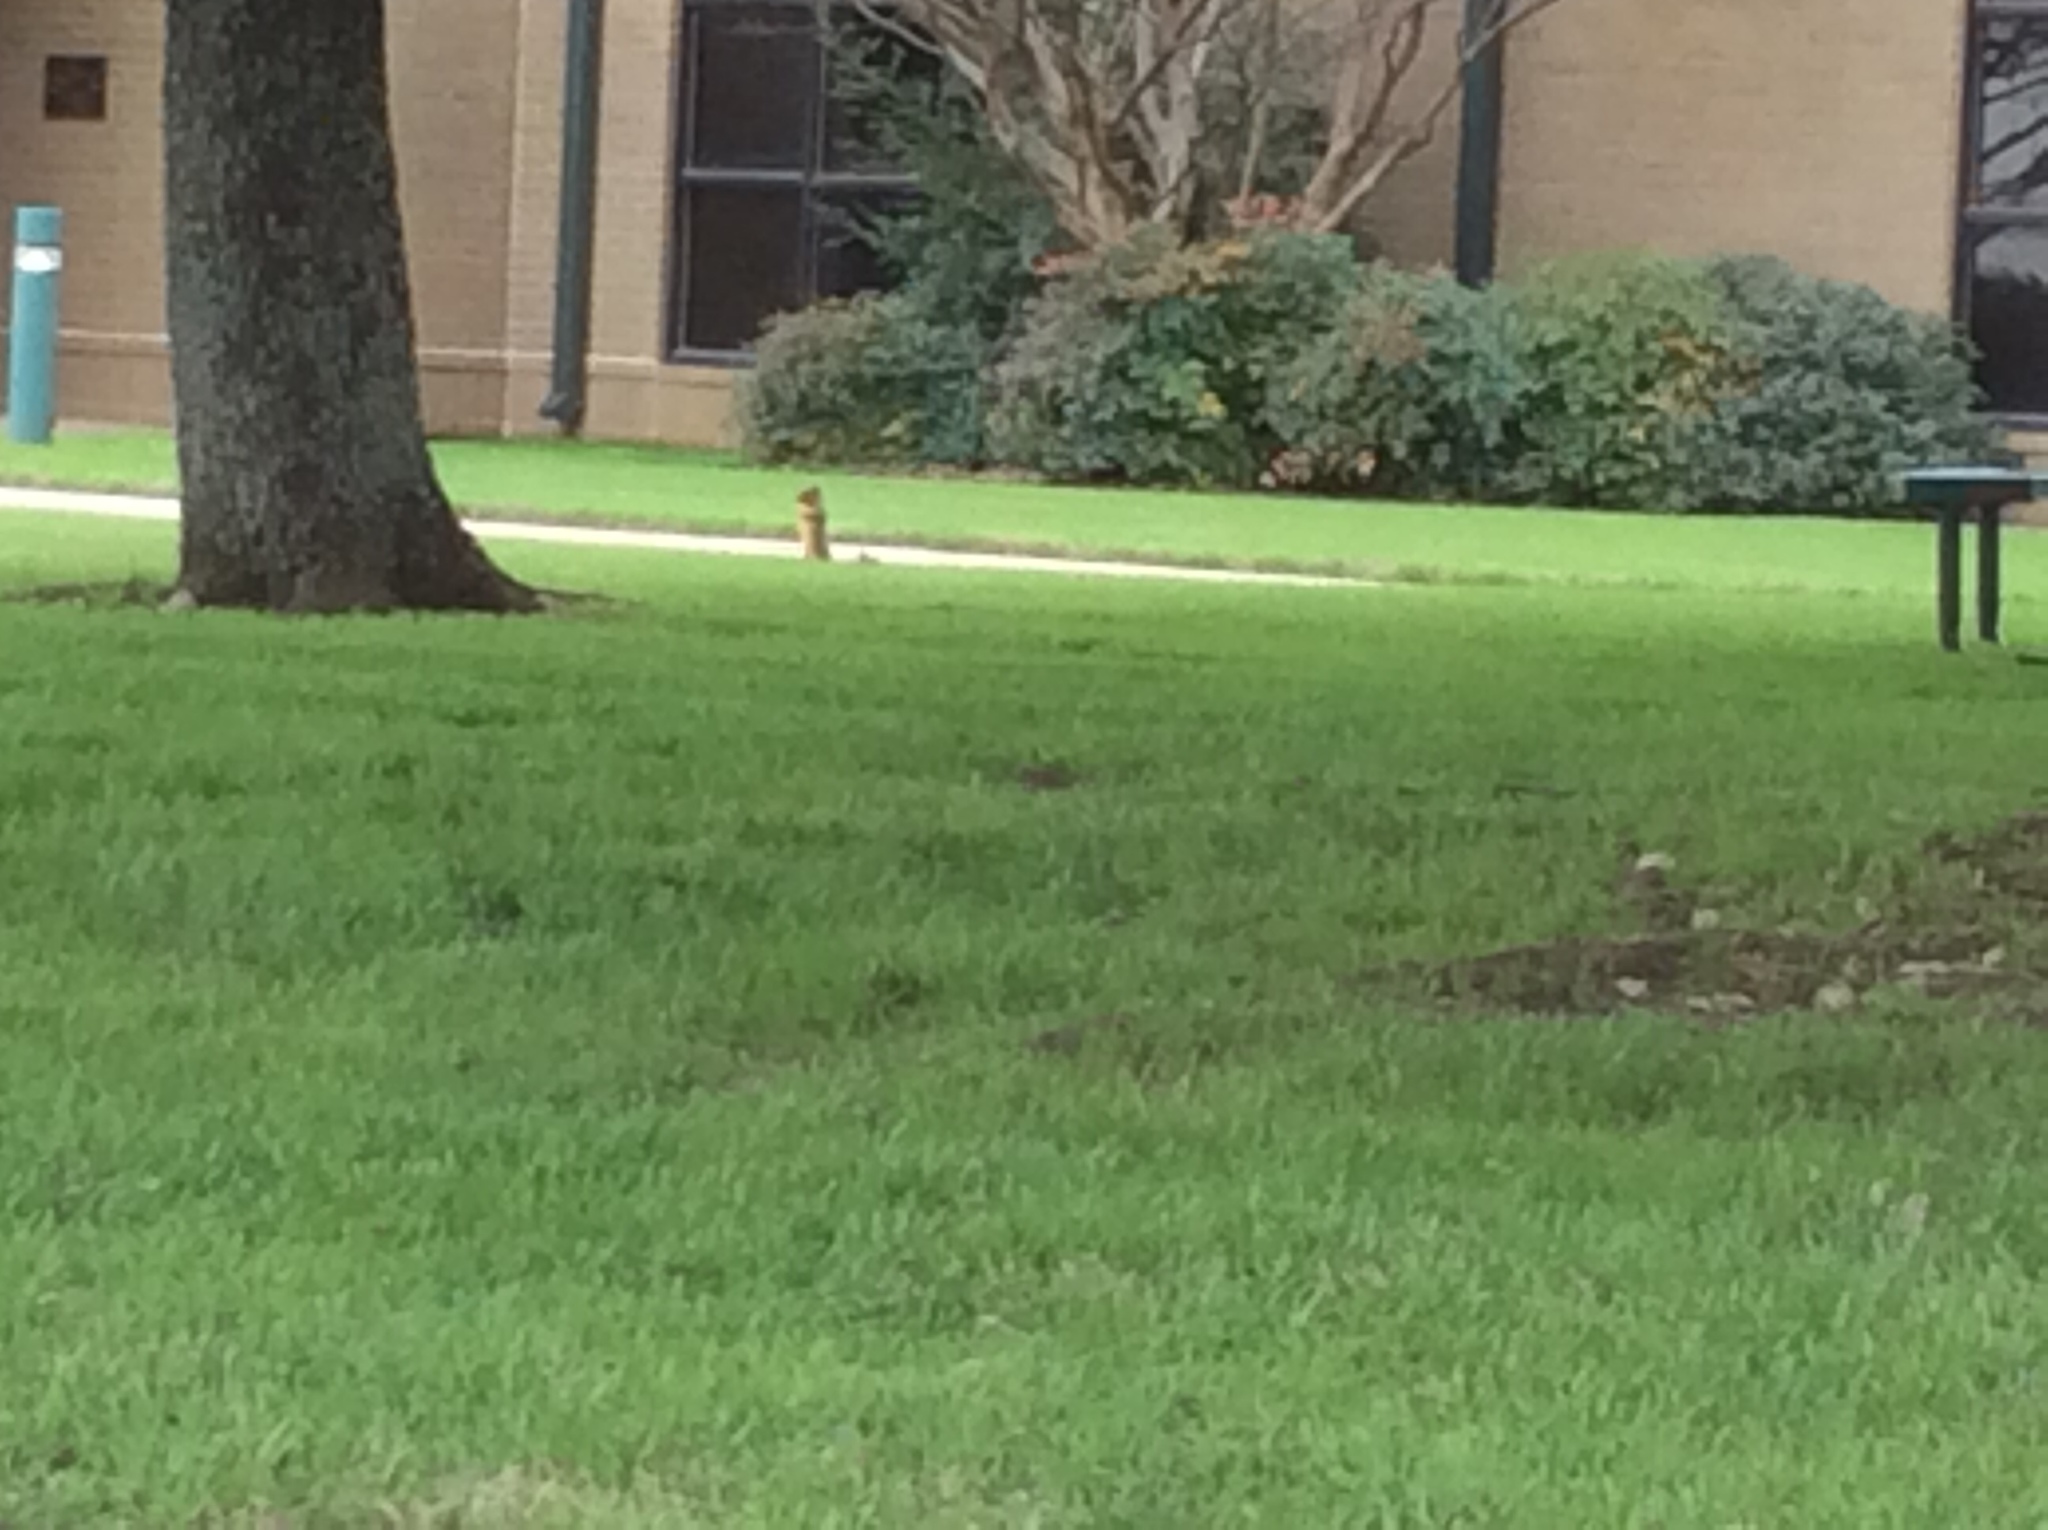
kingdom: Animalia
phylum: Chordata
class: Mammalia
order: Rodentia
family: Sciuridae
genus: Sciurus
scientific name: Sciurus niger
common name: Fox squirrel
